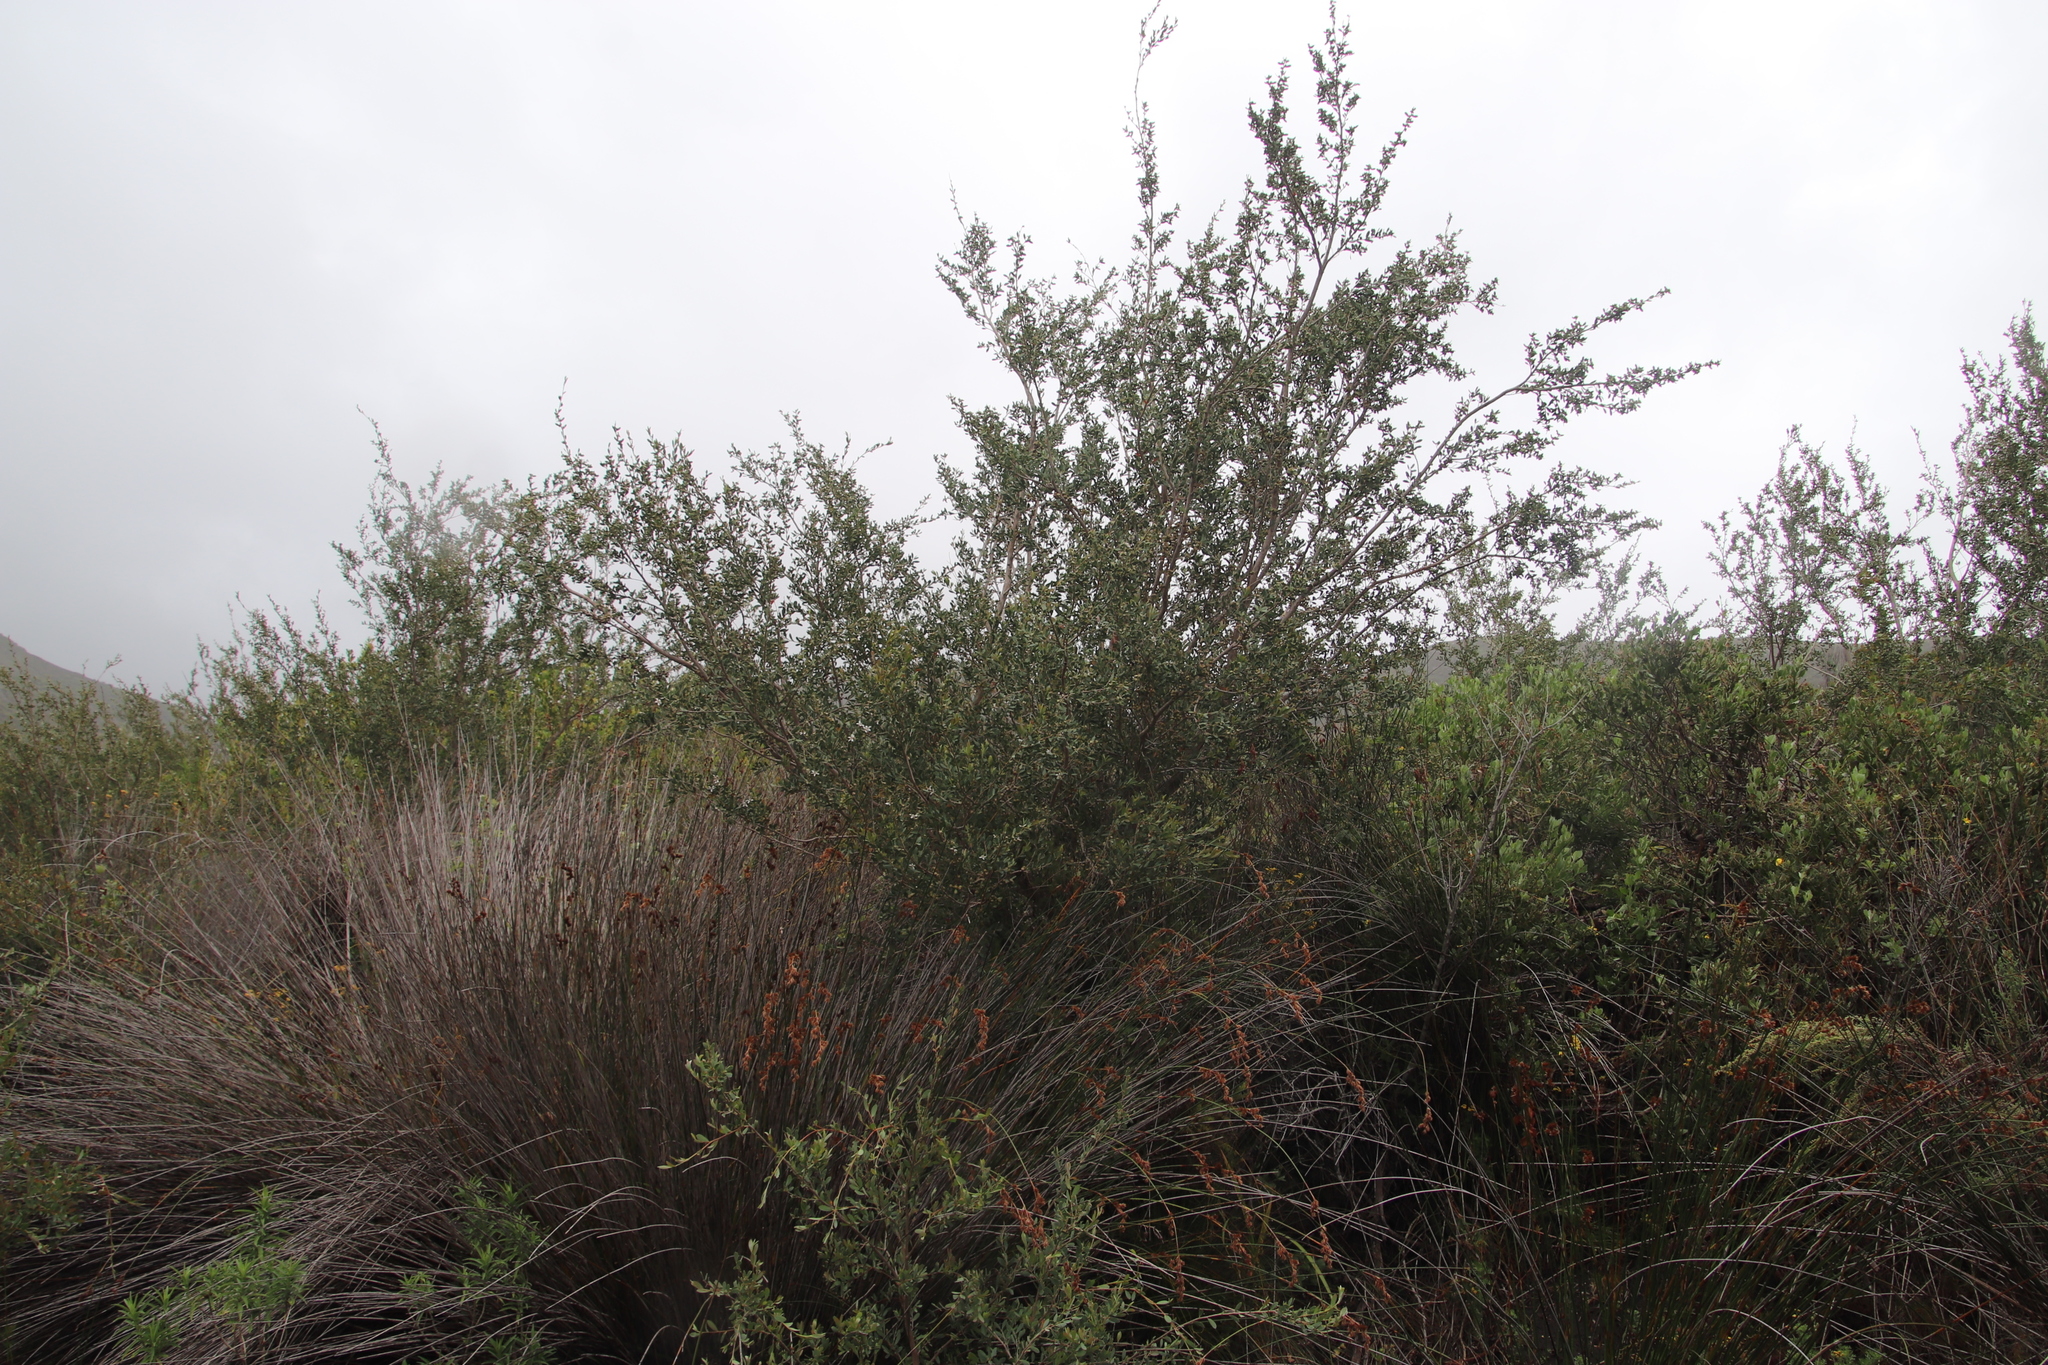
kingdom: Plantae
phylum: Tracheophyta
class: Magnoliopsida
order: Myrtales
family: Myrtaceae
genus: Leptospermum
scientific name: Leptospermum laevigatum
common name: Australian teatree
